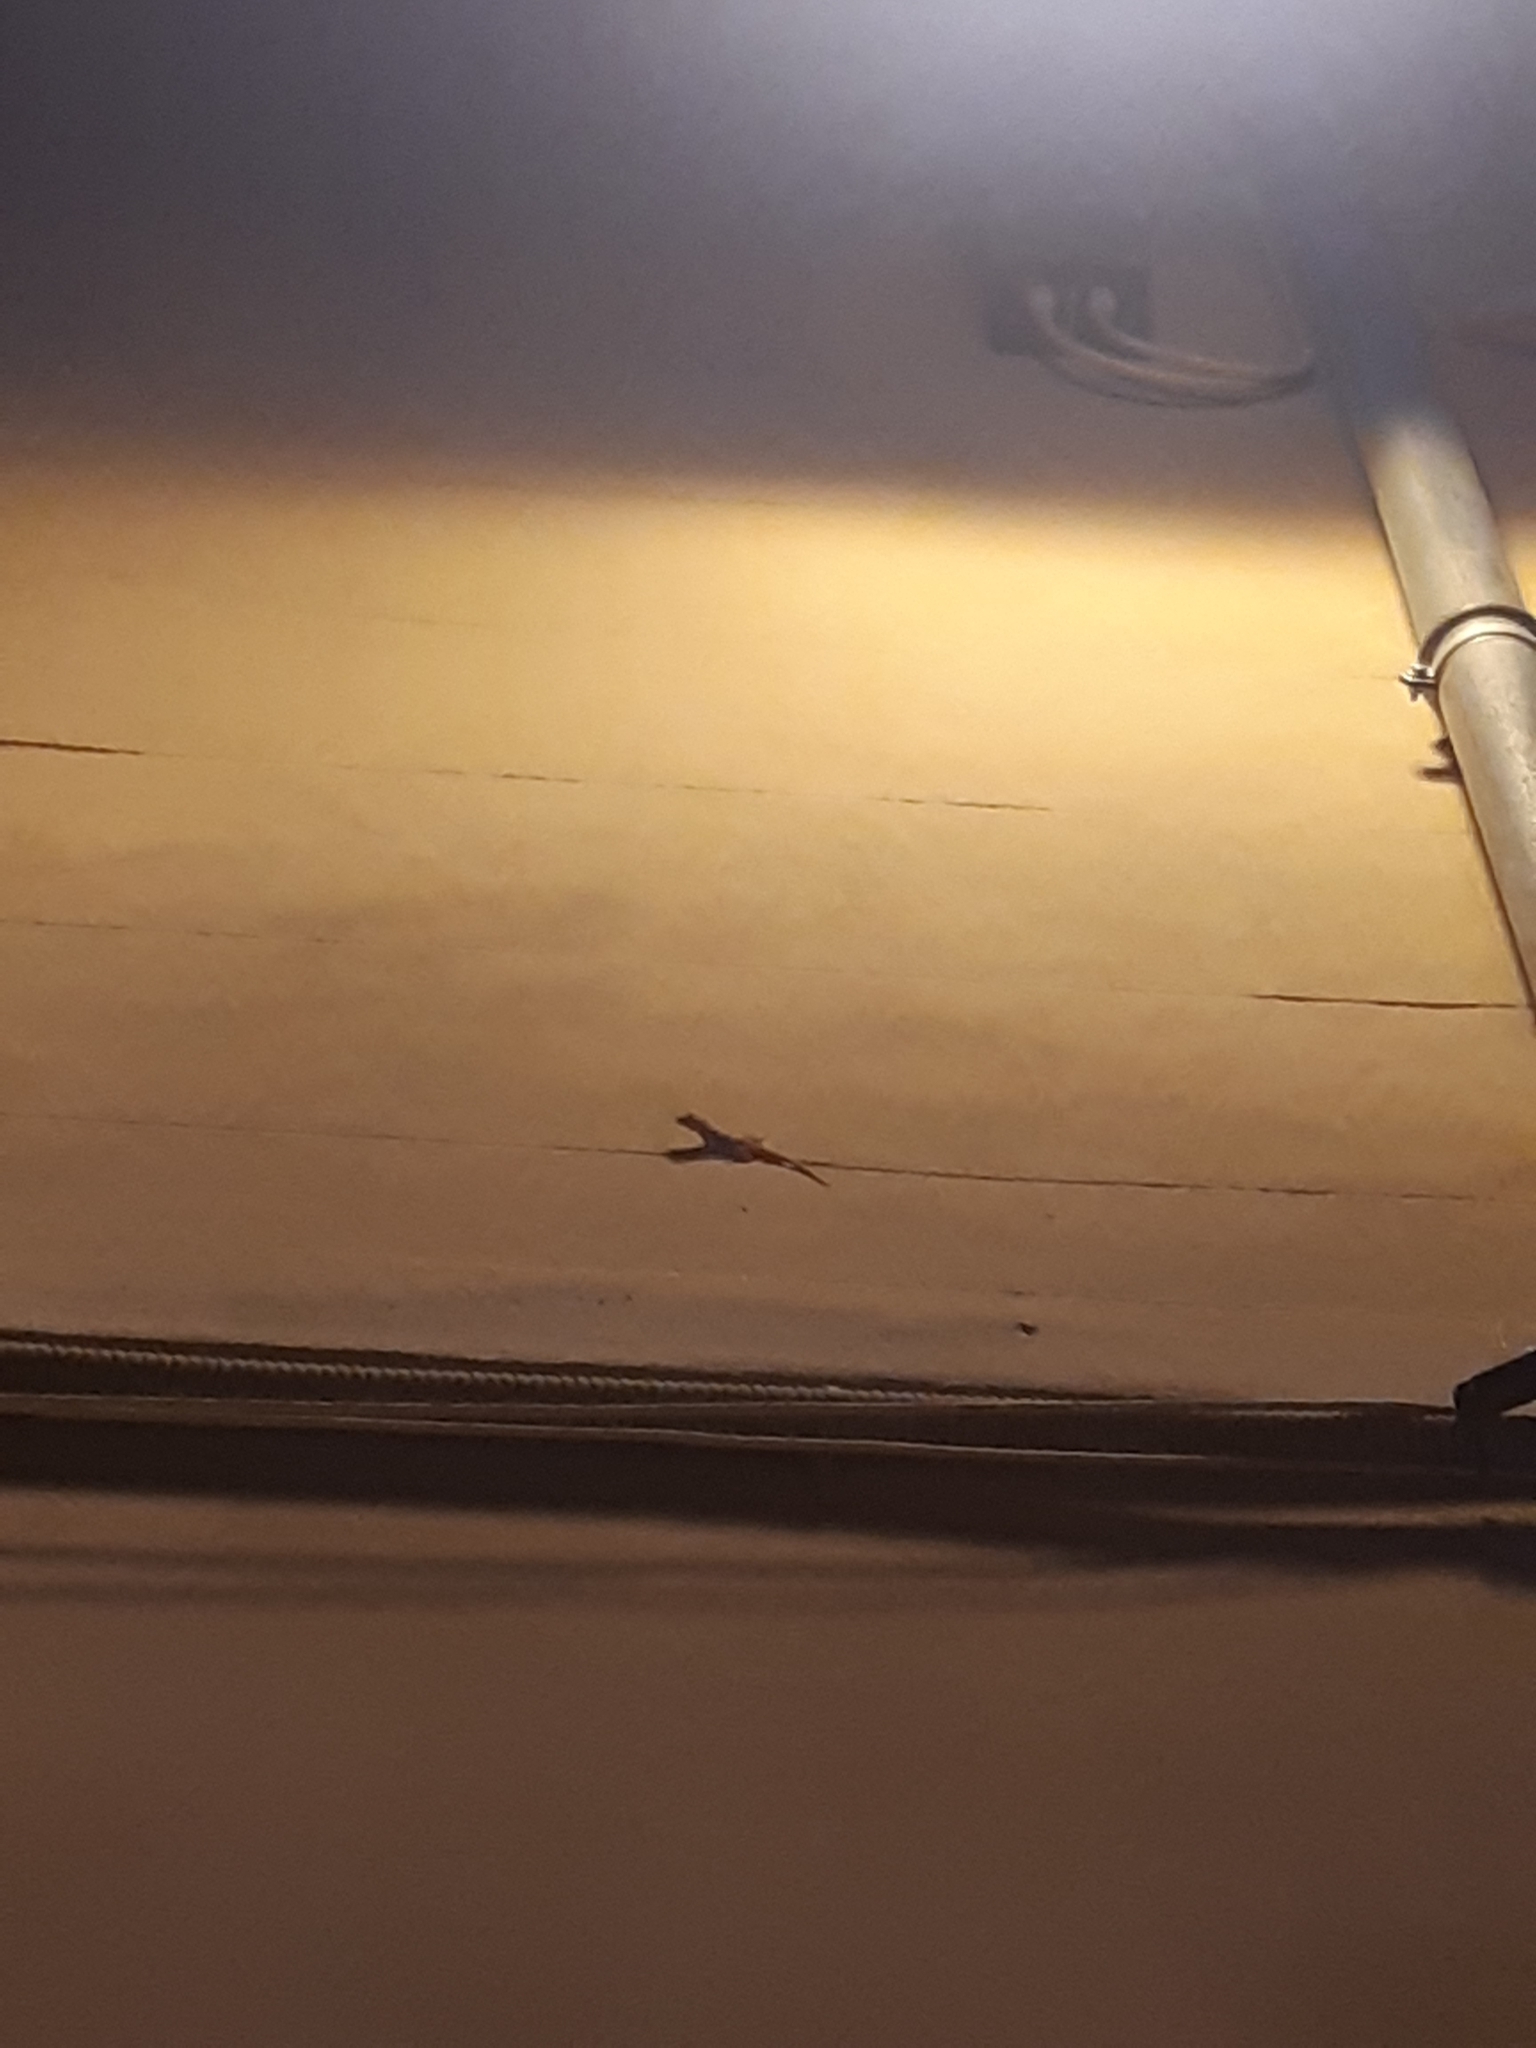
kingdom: Animalia
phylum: Chordata
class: Squamata
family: Phyllodactylidae
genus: Tarentola
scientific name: Tarentola mauritanica
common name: Moorish gecko
